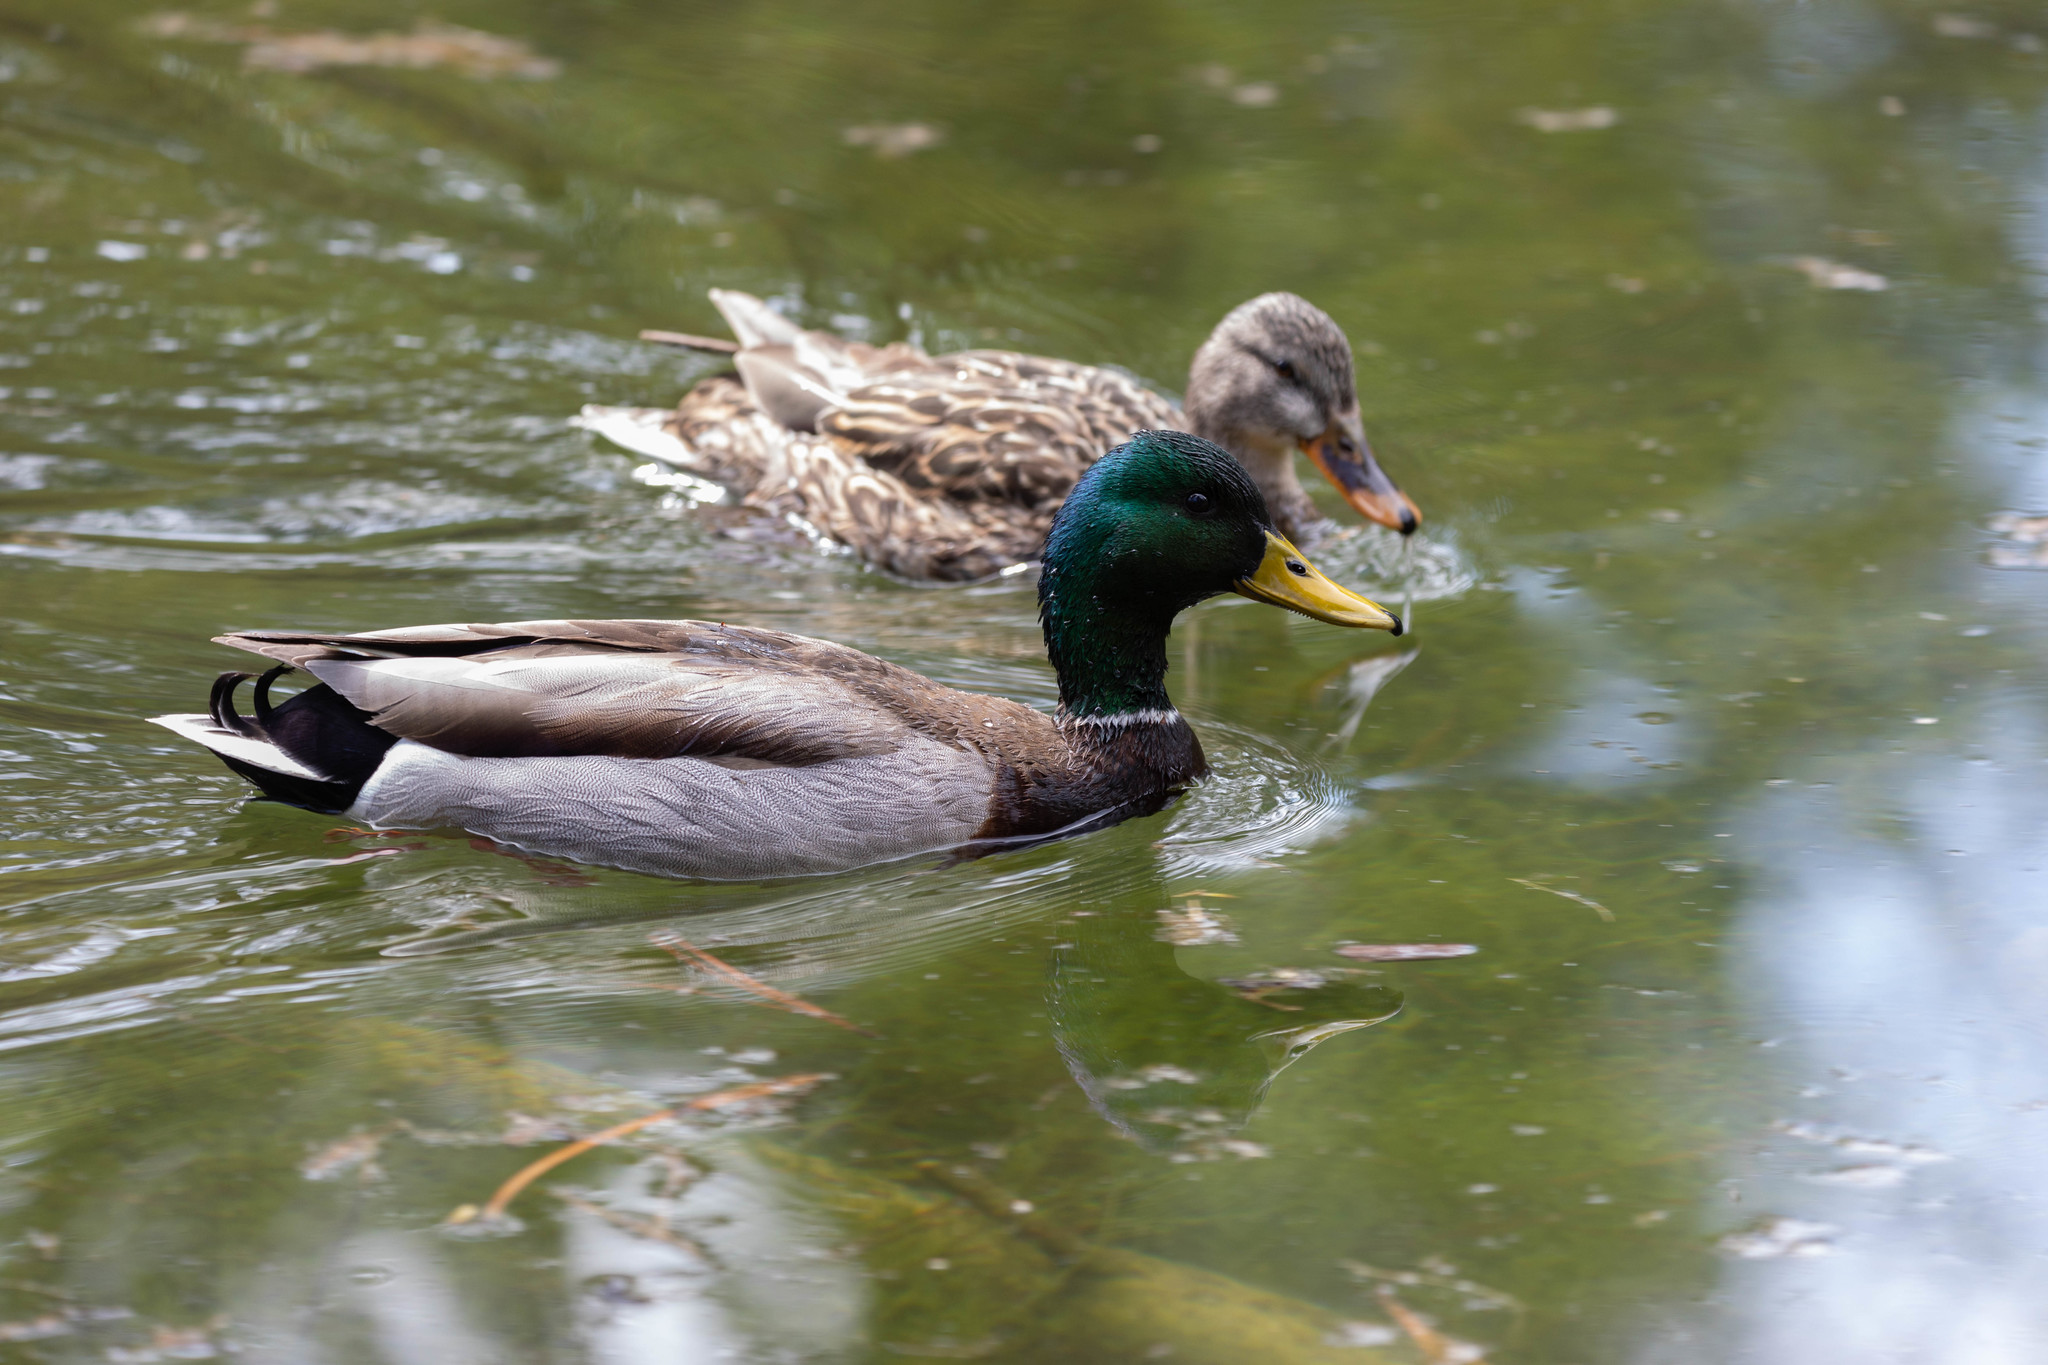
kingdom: Animalia
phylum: Chordata
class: Aves
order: Anseriformes
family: Anatidae
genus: Anas
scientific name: Anas platyrhynchos
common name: Mallard
